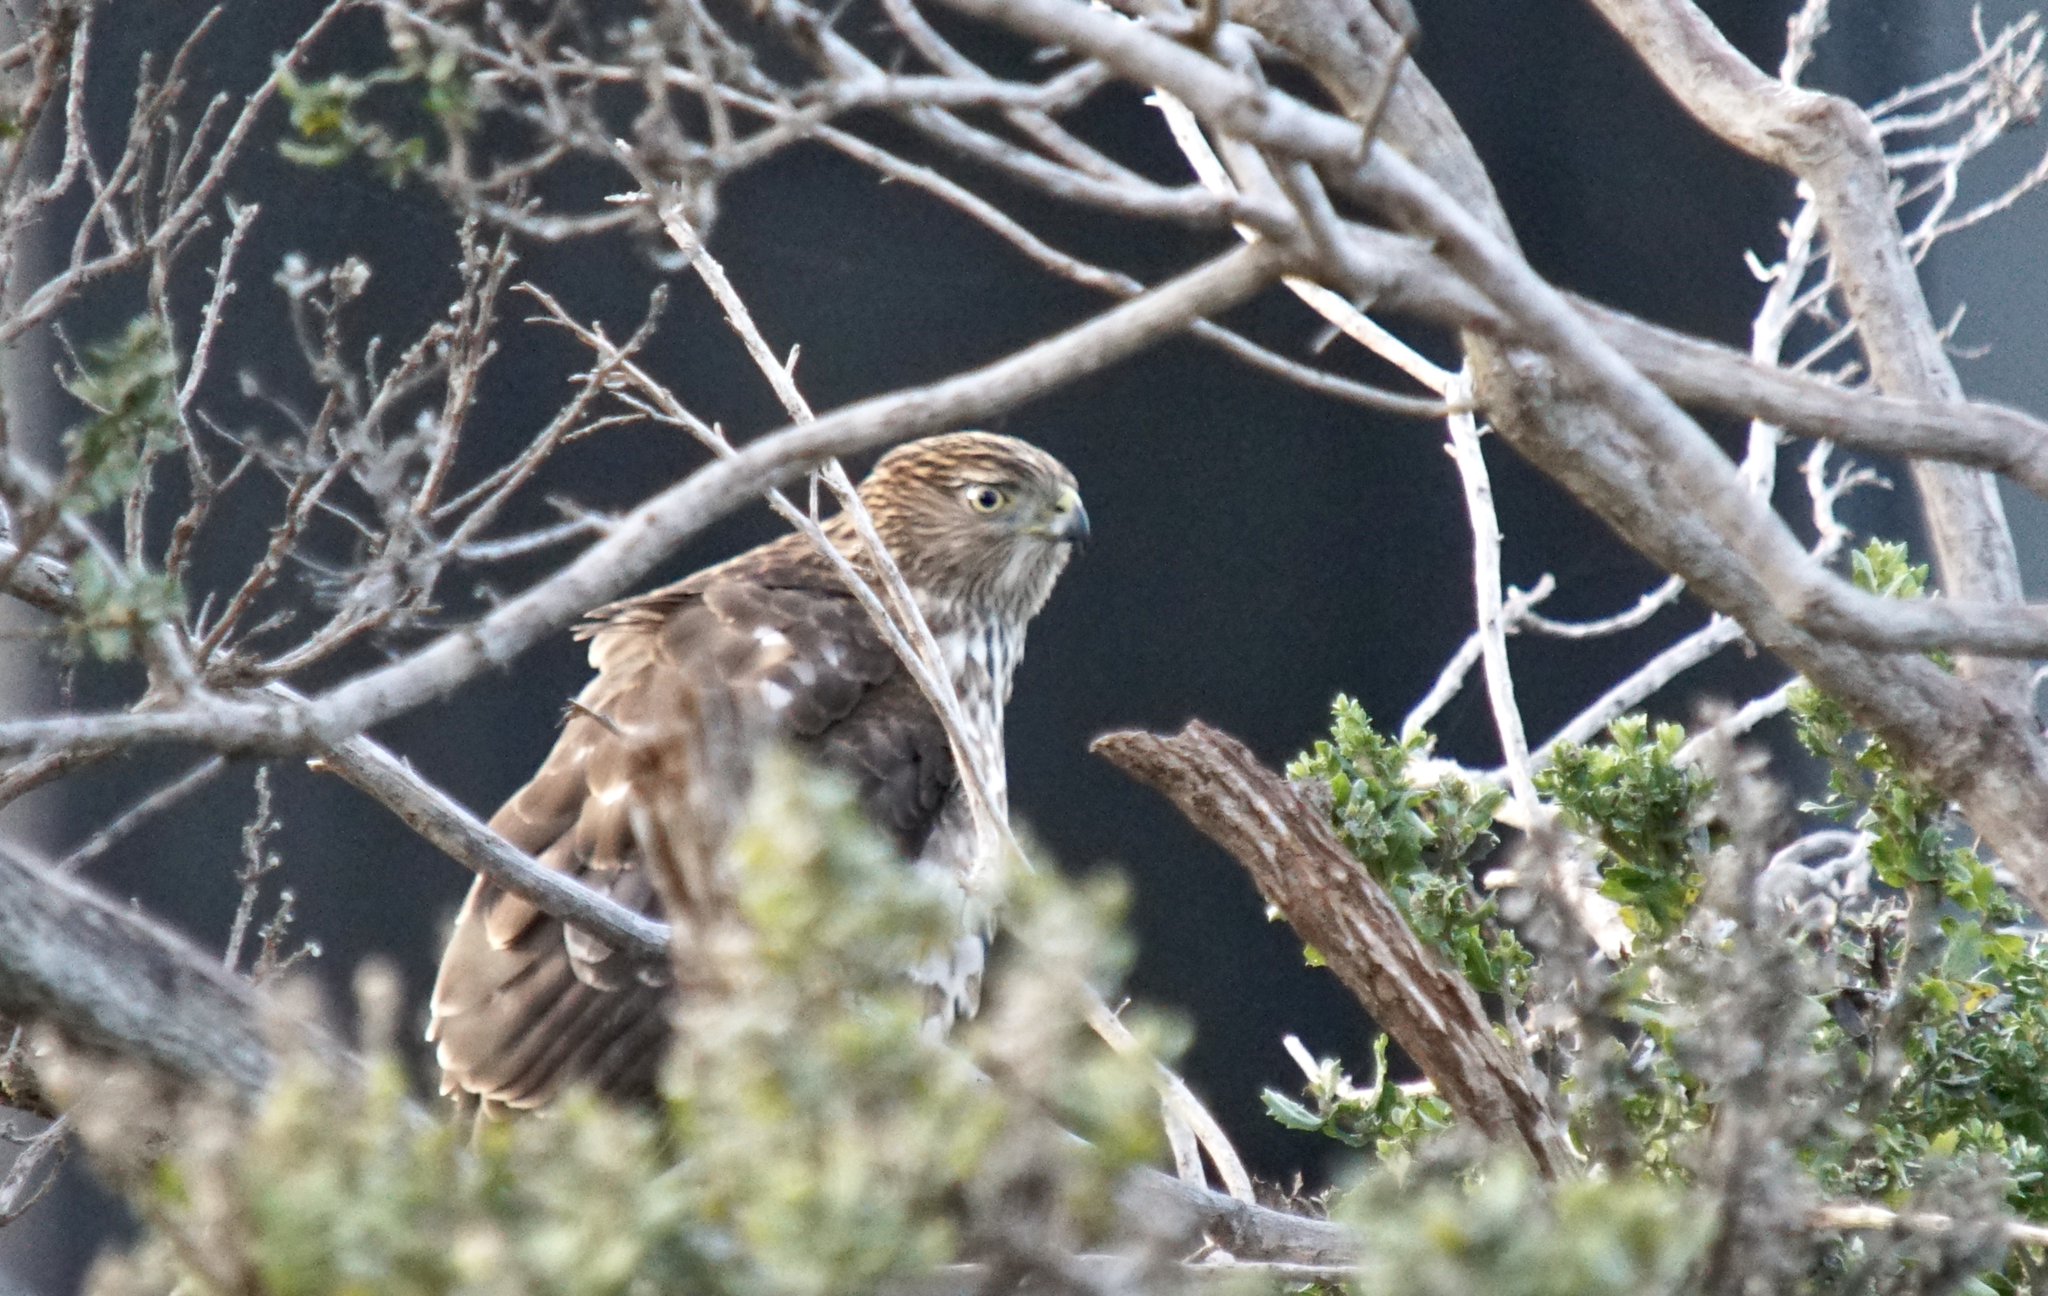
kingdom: Animalia
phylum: Chordata
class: Aves
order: Accipitriformes
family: Accipitridae
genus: Accipiter
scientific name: Accipiter cooperii
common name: Cooper's hawk
